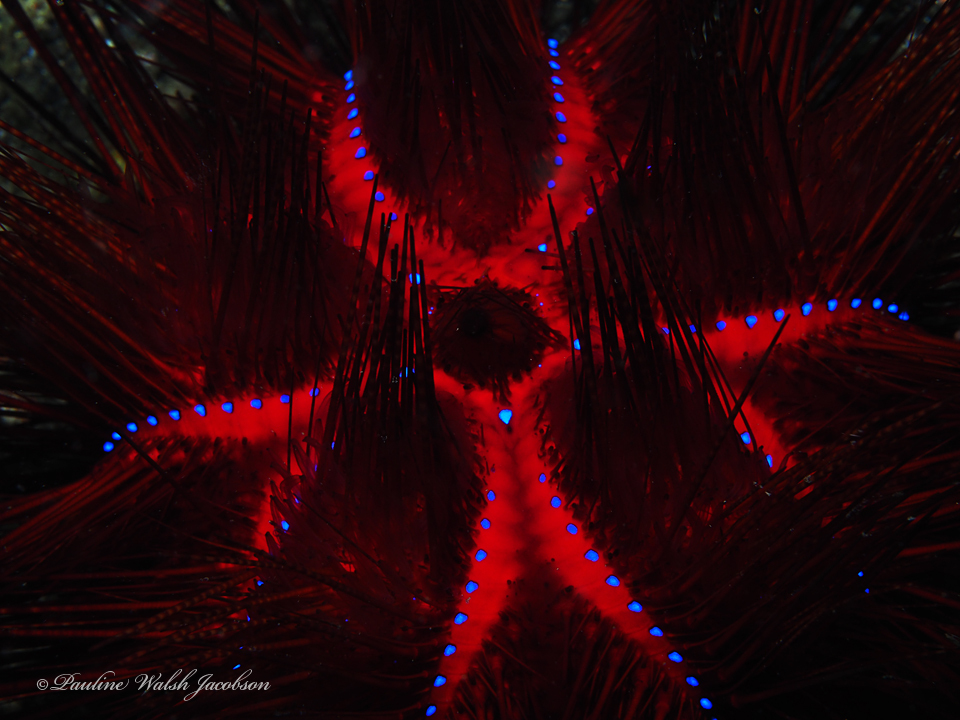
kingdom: Animalia
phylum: Echinodermata
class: Echinoidea
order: Diadematoida
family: Diadematidae
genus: Astropyga
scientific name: Astropyga radiata
